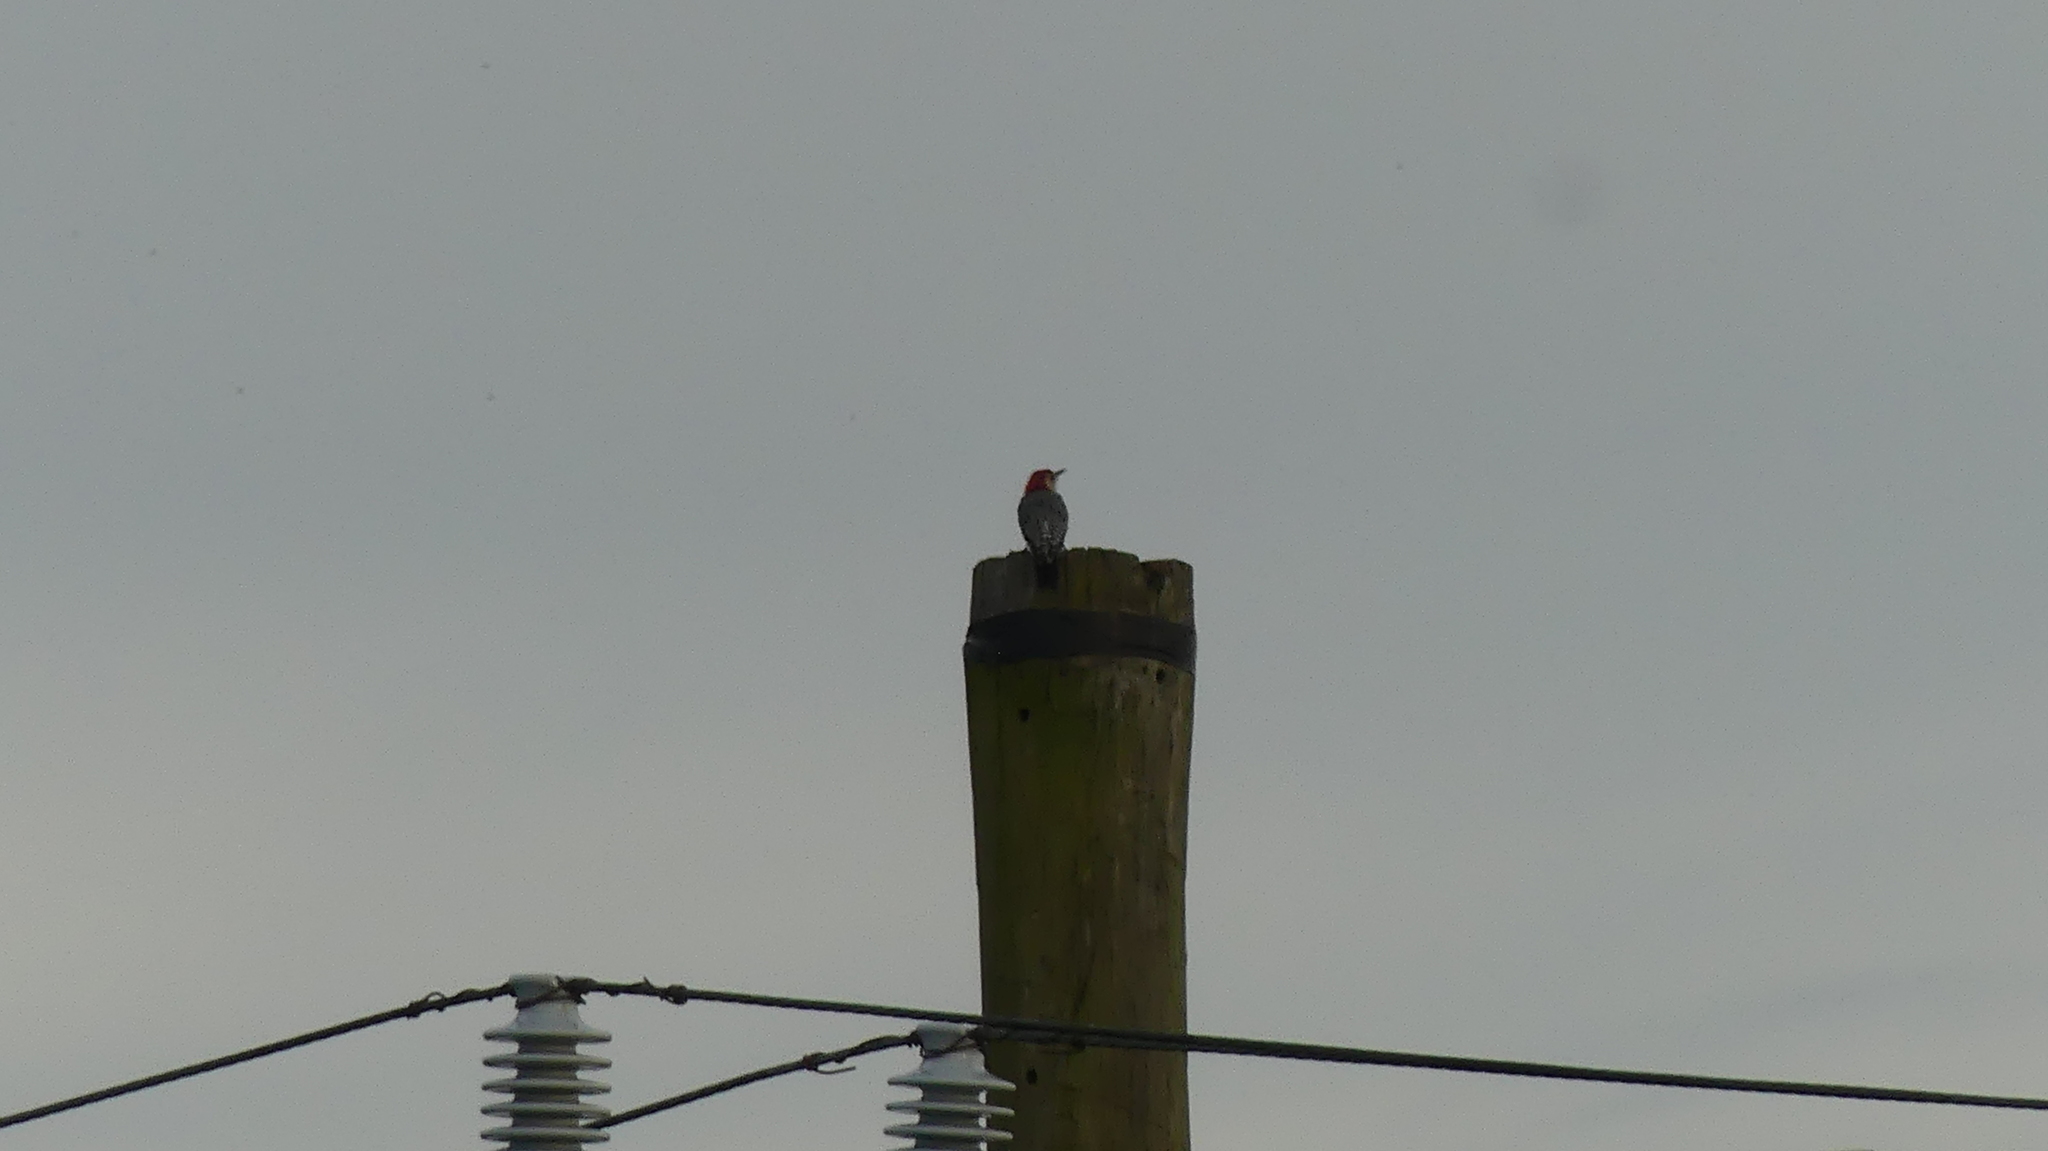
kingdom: Animalia
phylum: Chordata
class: Aves
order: Piciformes
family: Picidae
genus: Melanerpes
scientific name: Melanerpes carolinus
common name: Red-bellied woodpecker
